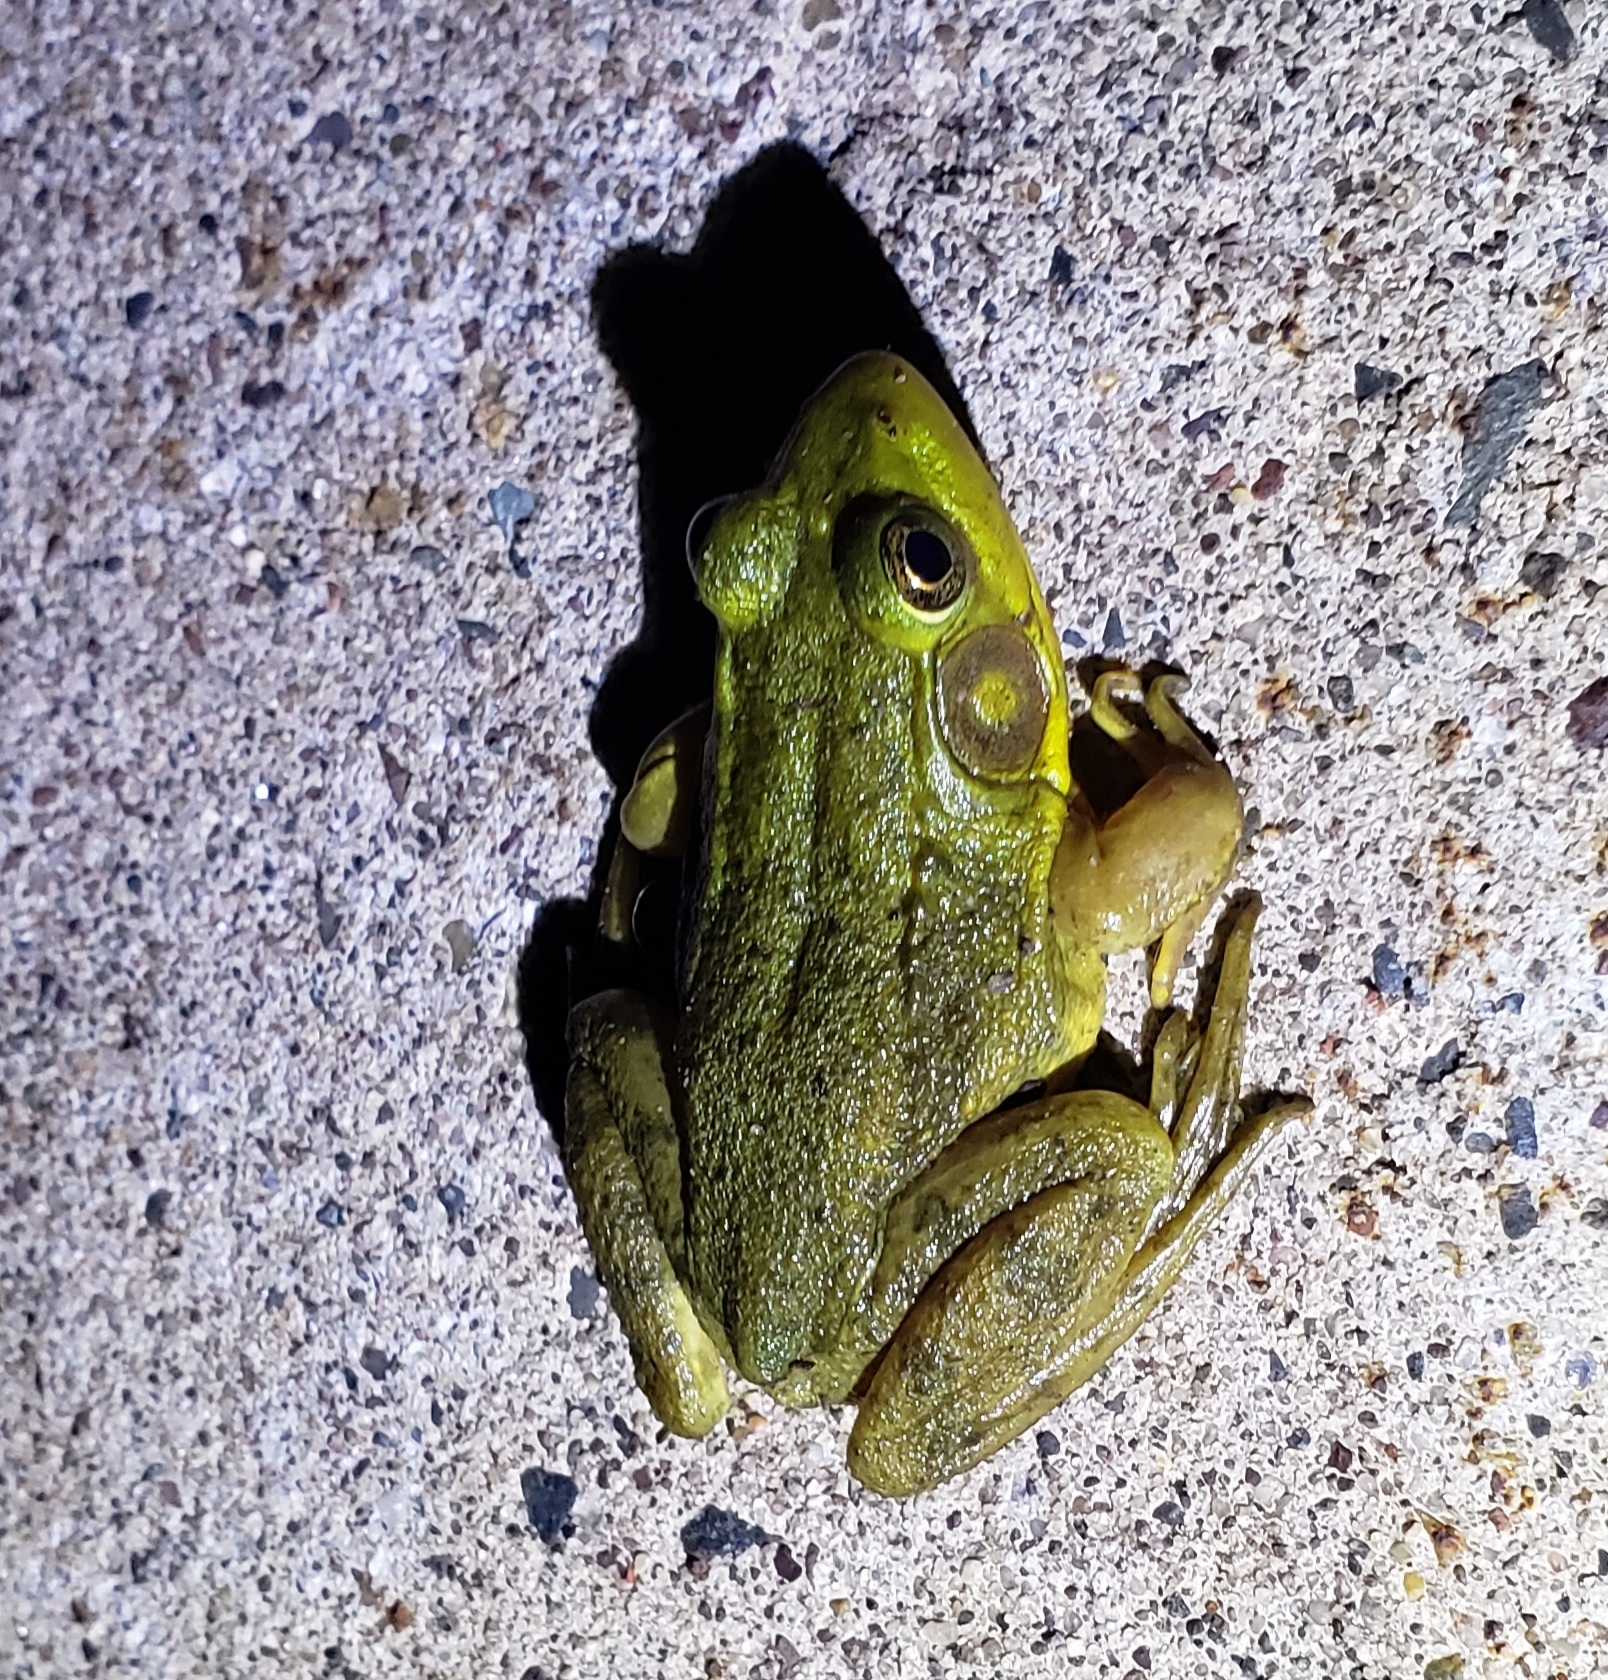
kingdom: Animalia
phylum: Chordata
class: Amphibia
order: Anura
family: Ranidae
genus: Lithobates
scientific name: Lithobates clamitans
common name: Green frog
